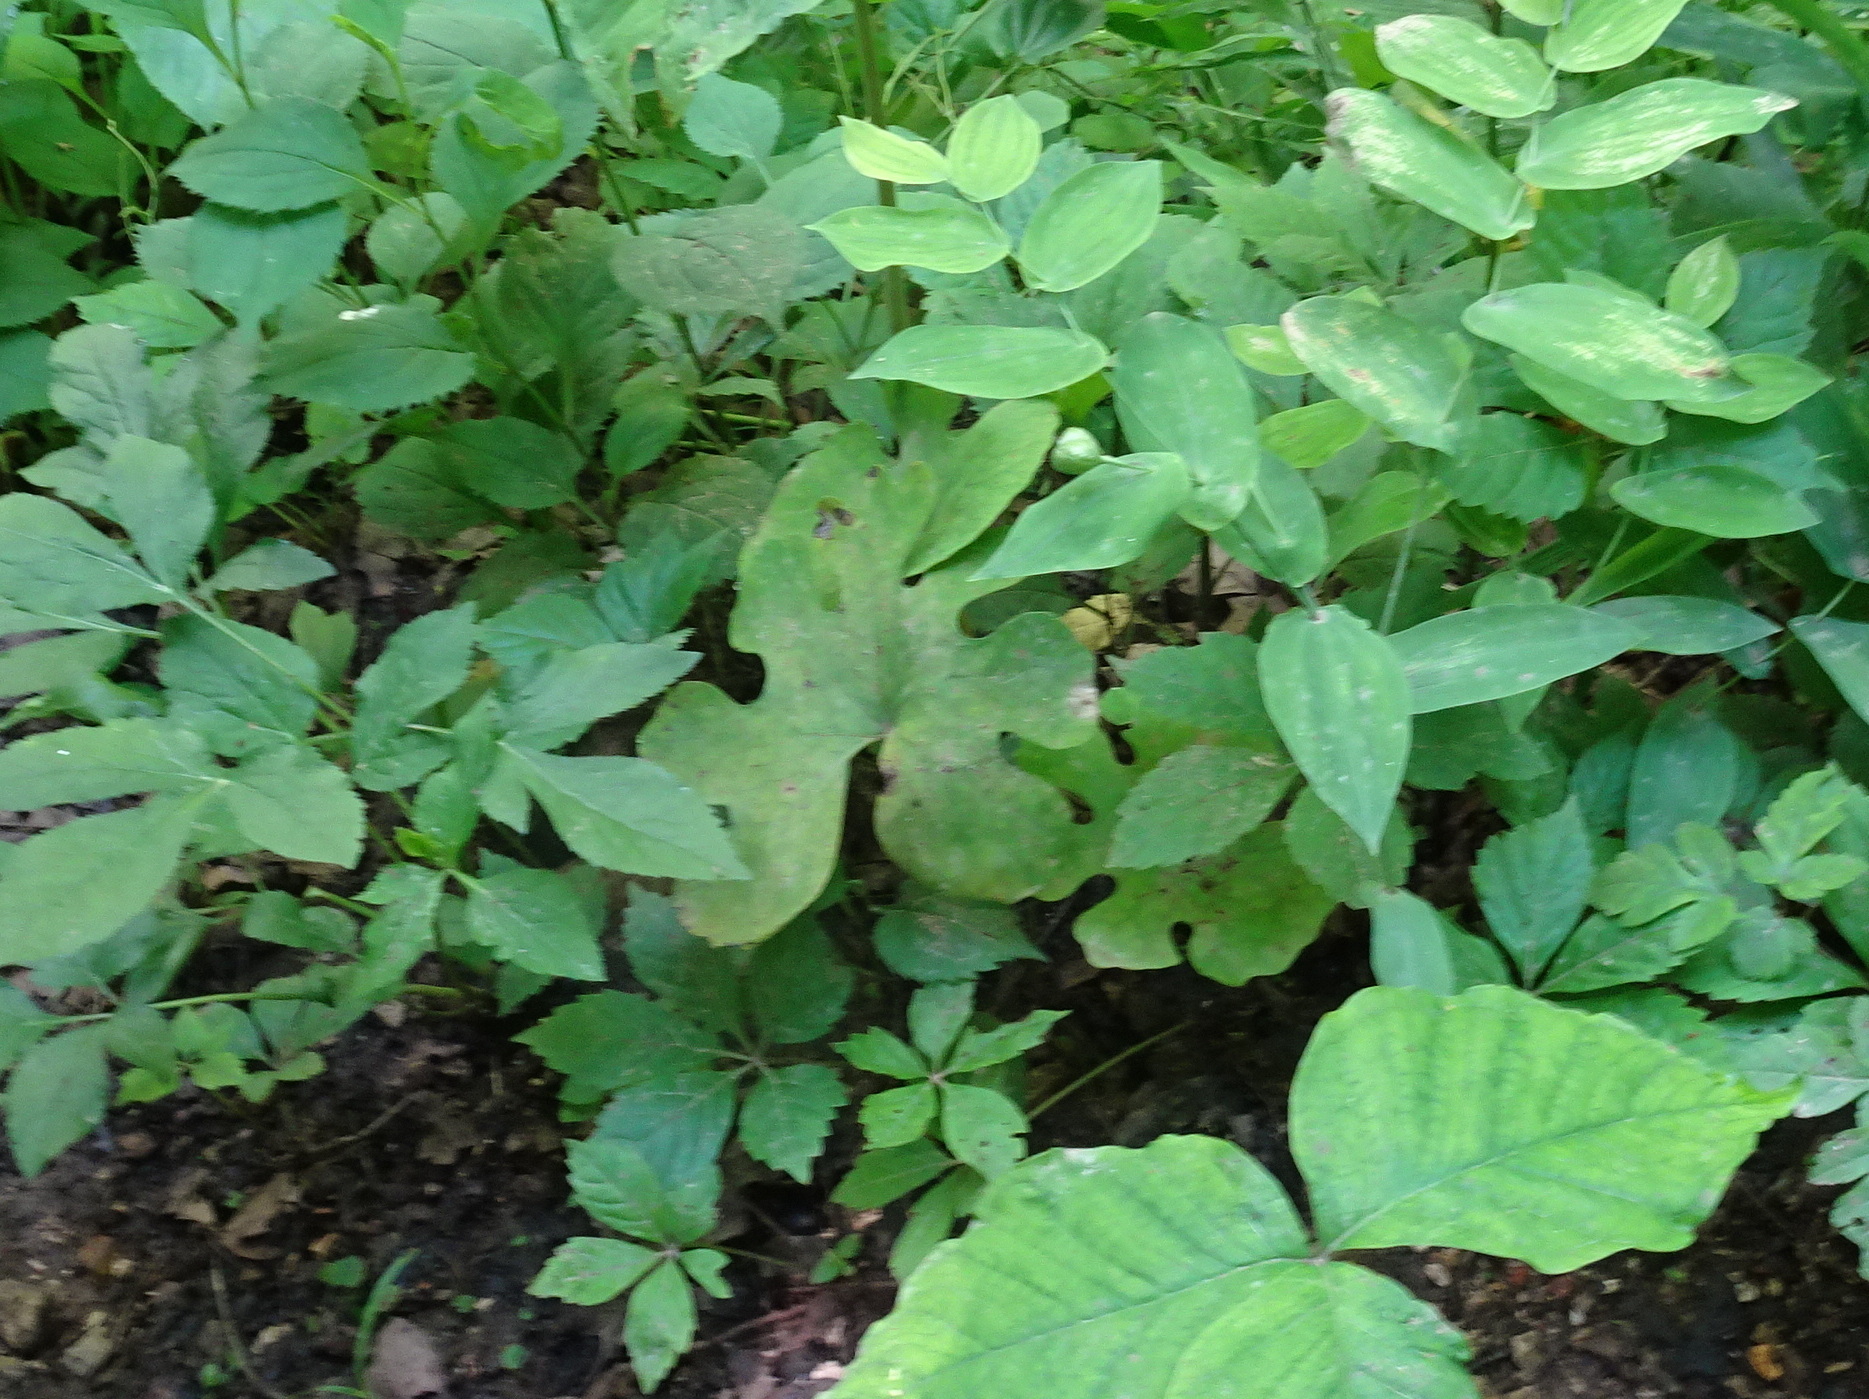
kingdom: Plantae
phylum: Tracheophyta
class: Magnoliopsida
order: Ranunculales
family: Papaveraceae
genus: Sanguinaria
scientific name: Sanguinaria canadensis
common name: Bloodroot
